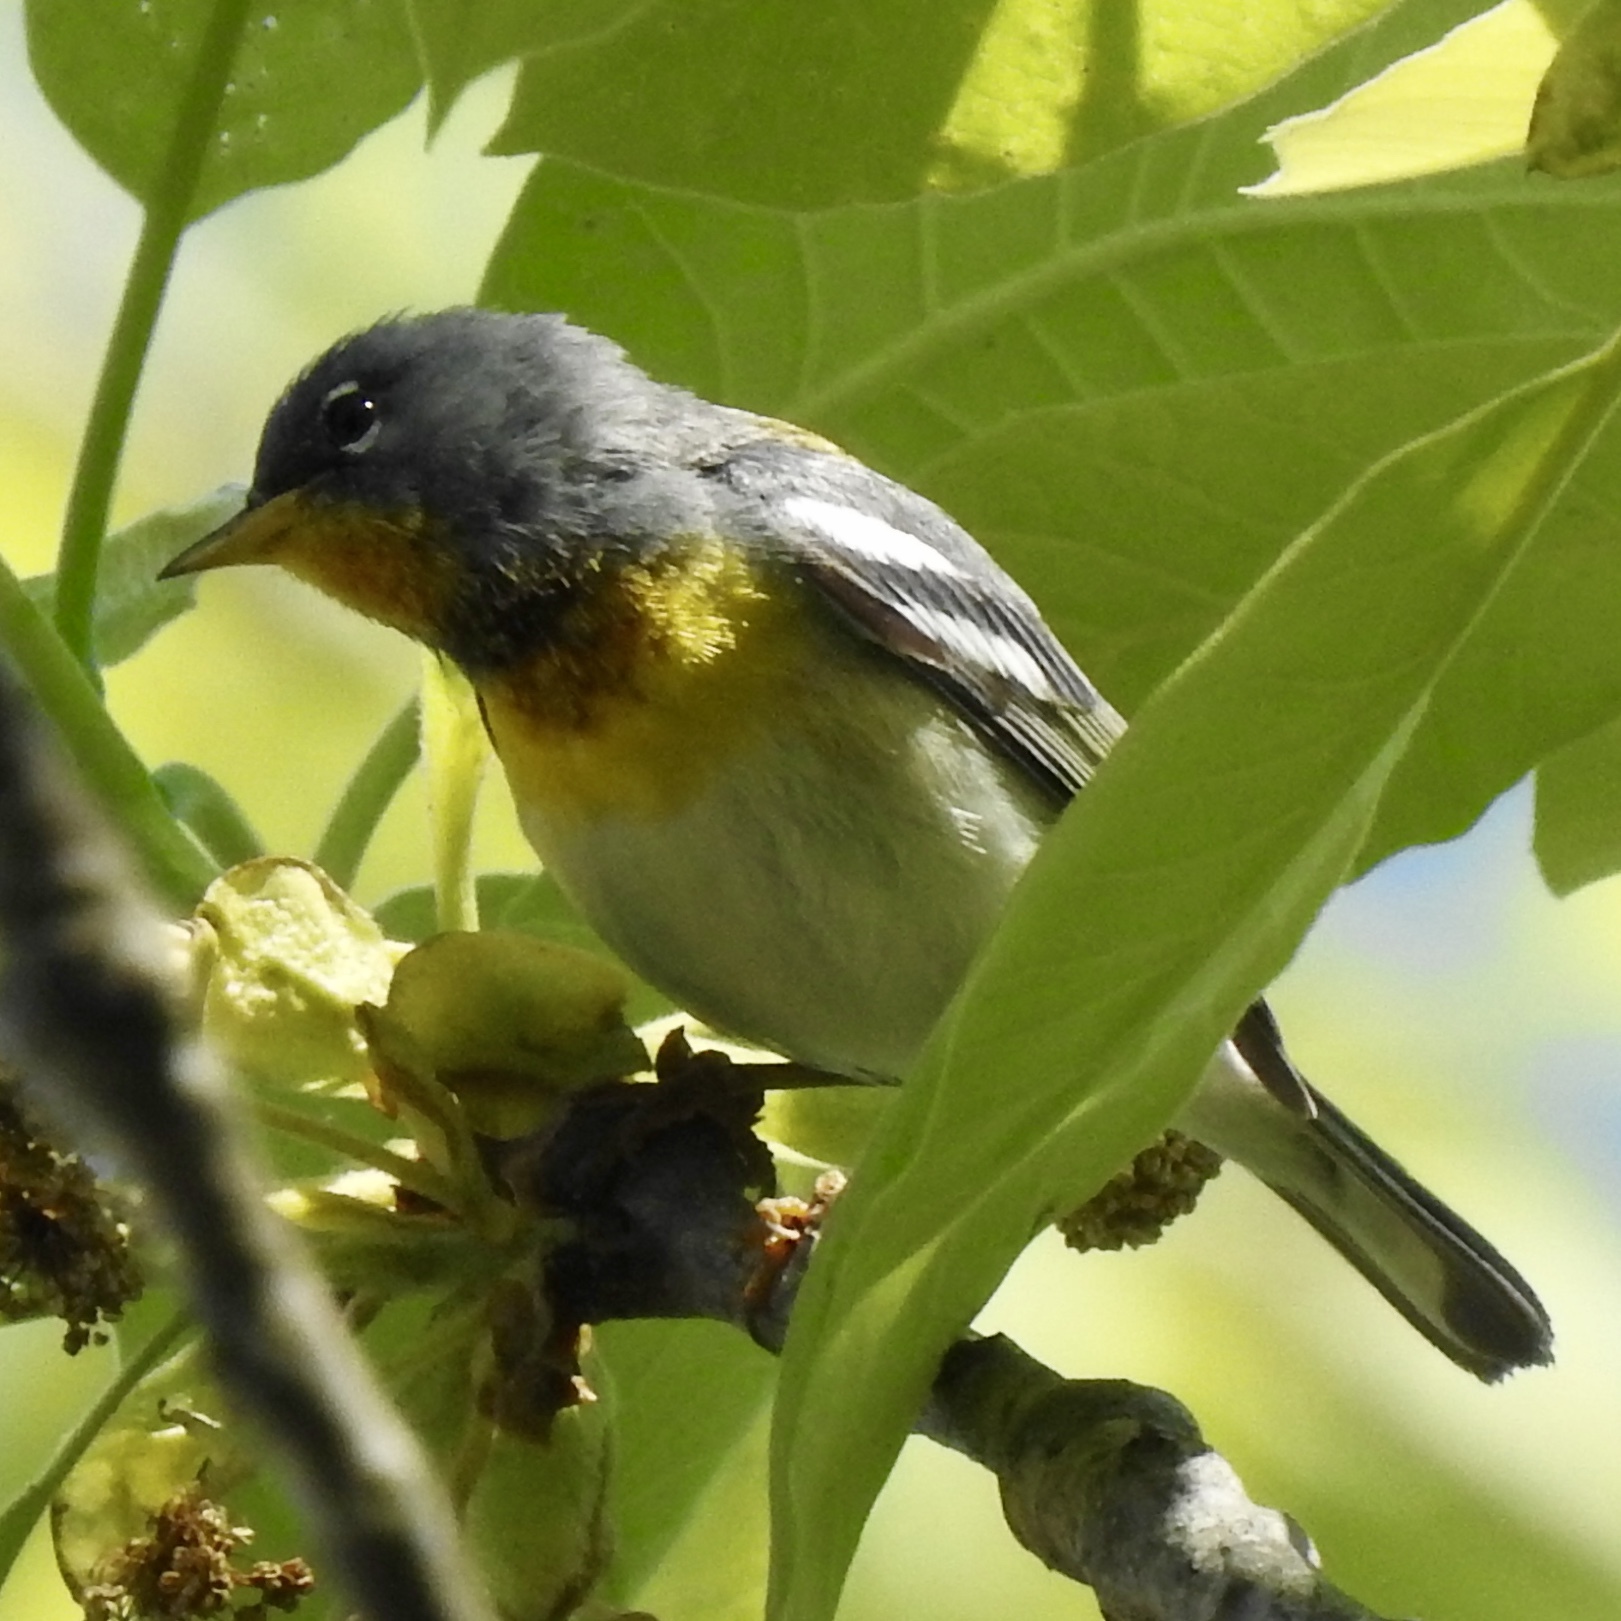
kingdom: Animalia
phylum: Chordata
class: Aves
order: Passeriformes
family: Parulidae
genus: Setophaga
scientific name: Setophaga americana
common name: Northern parula
